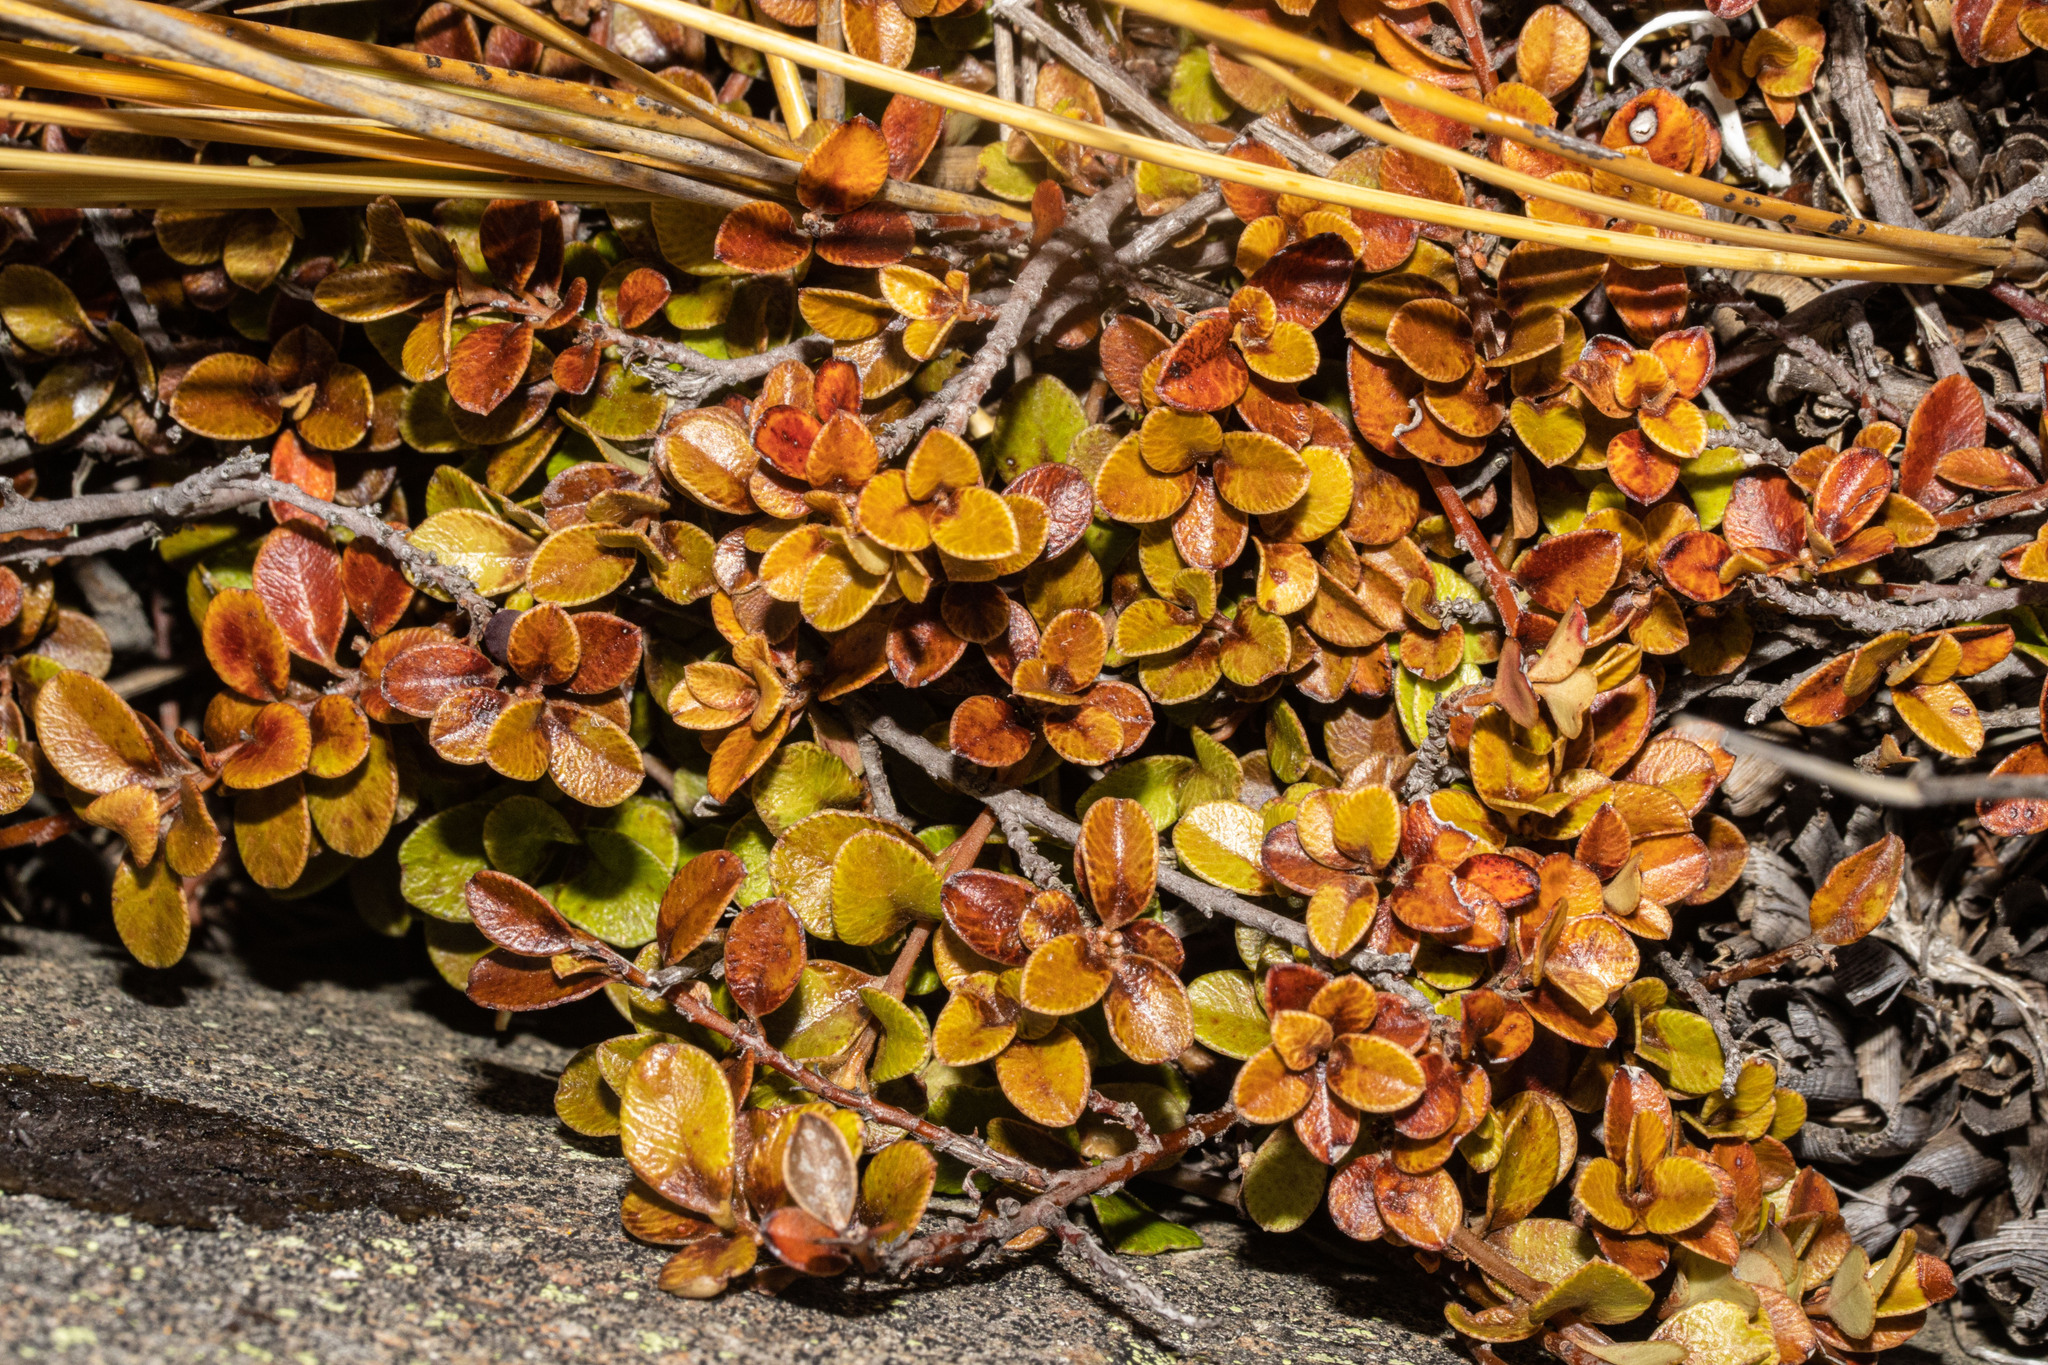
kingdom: Plantae
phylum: Tracheophyta
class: Magnoliopsida
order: Ericales
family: Primulaceae
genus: Myrsine
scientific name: Myrsine nummularia
